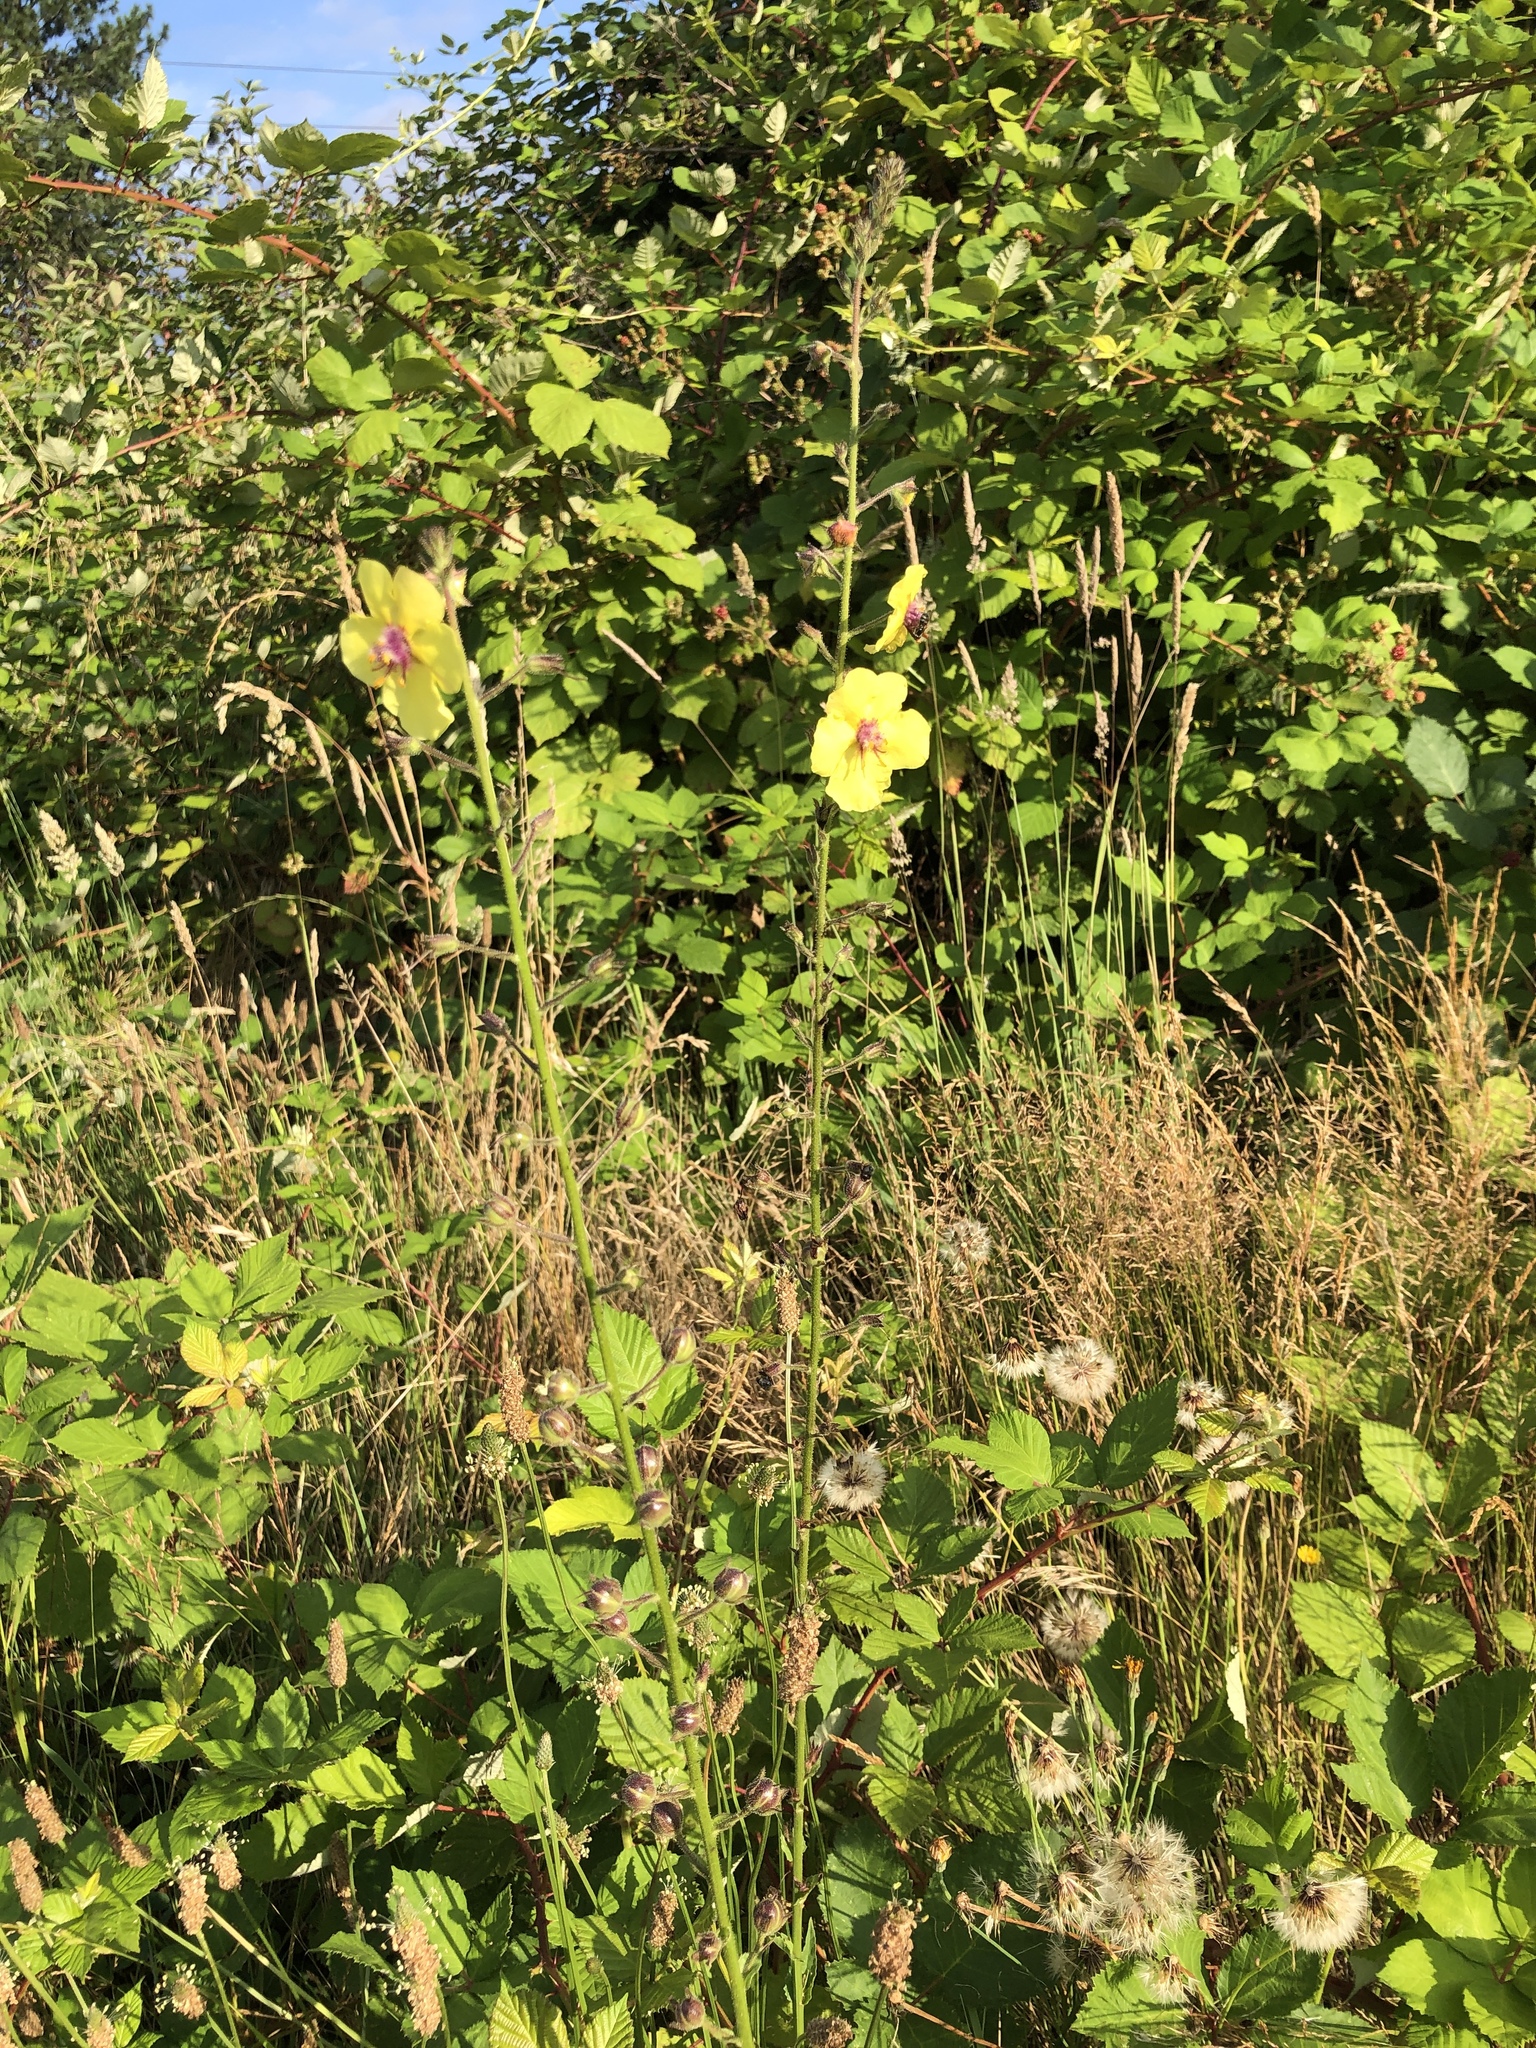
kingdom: Plantae
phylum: Tracheophyta
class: Magnoliopsida
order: Lamiales
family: Scrophulariaceae
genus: Verbascum
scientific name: Verbascum blattaria
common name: Moth mullein
